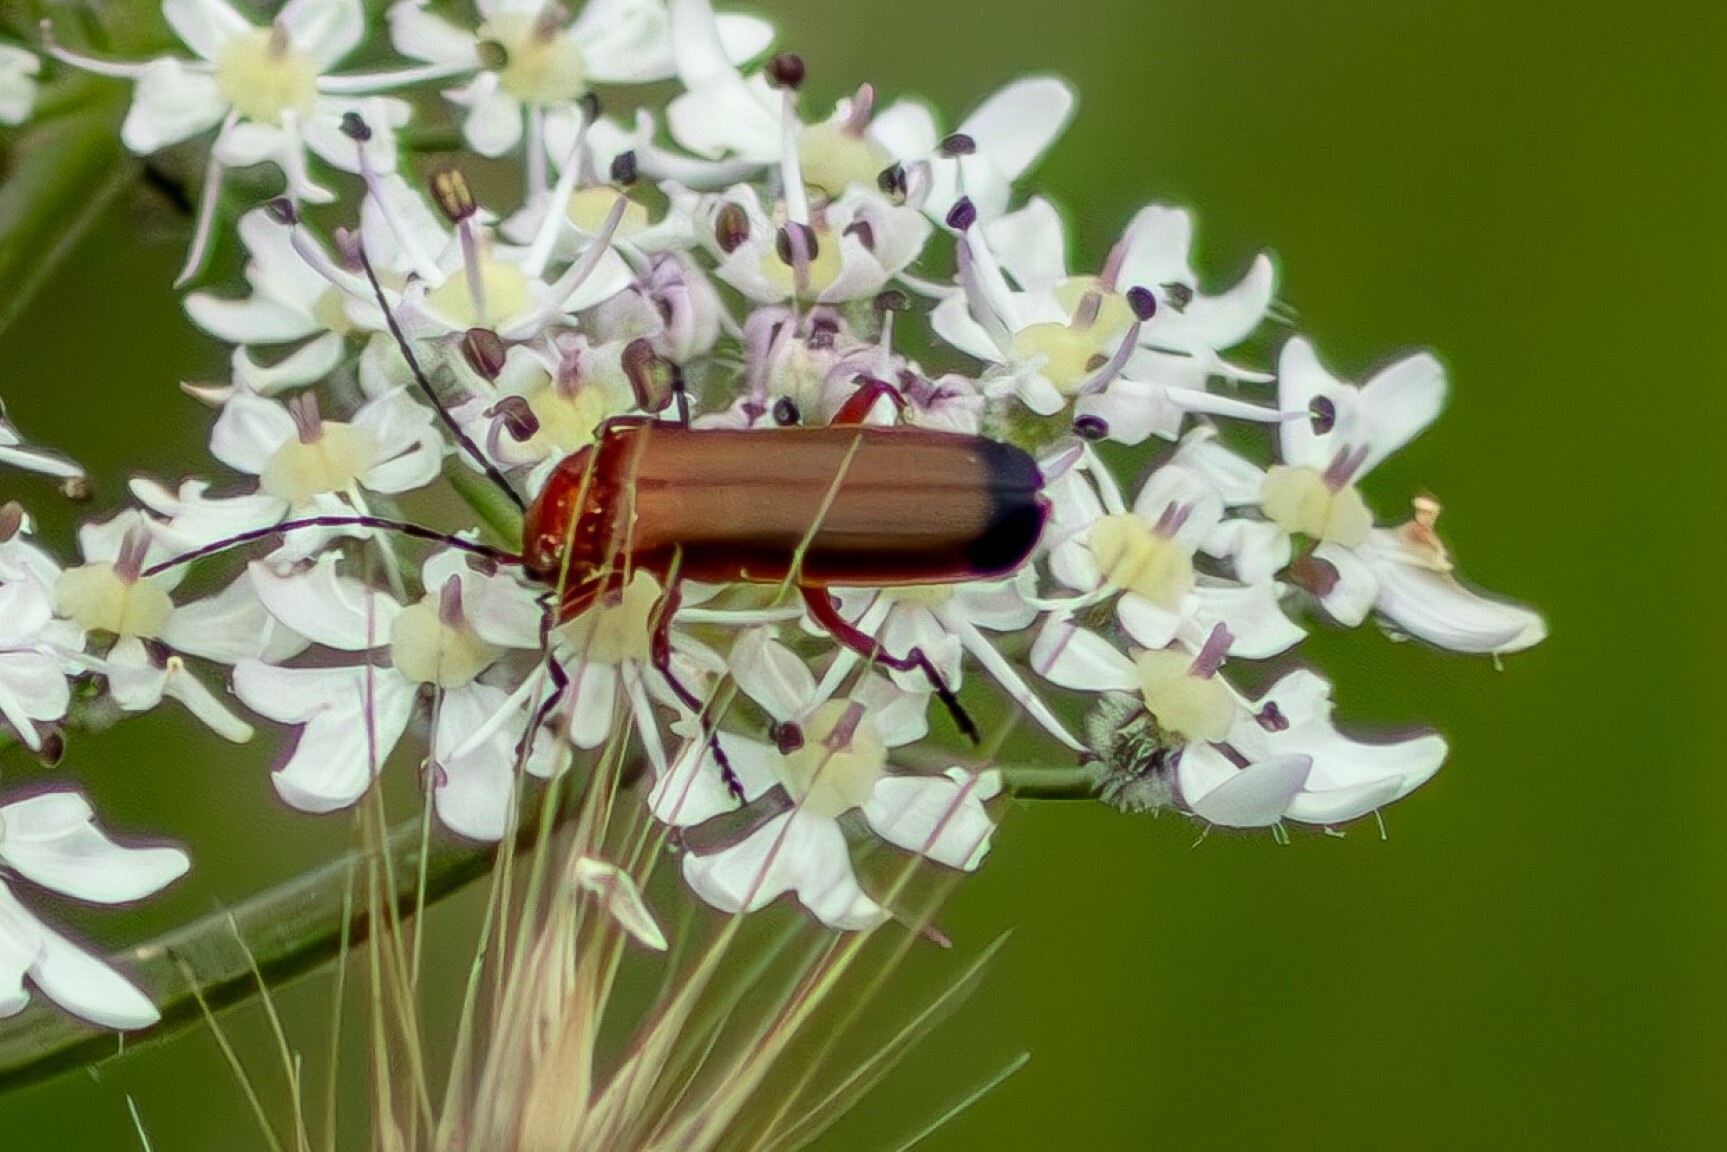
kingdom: Animalia
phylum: Arthropoda
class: Insecta
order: Coleoptera
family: Cantharidae
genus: Rhagonycha
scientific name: Rhagonycha fulva
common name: Common red soldier beetle
